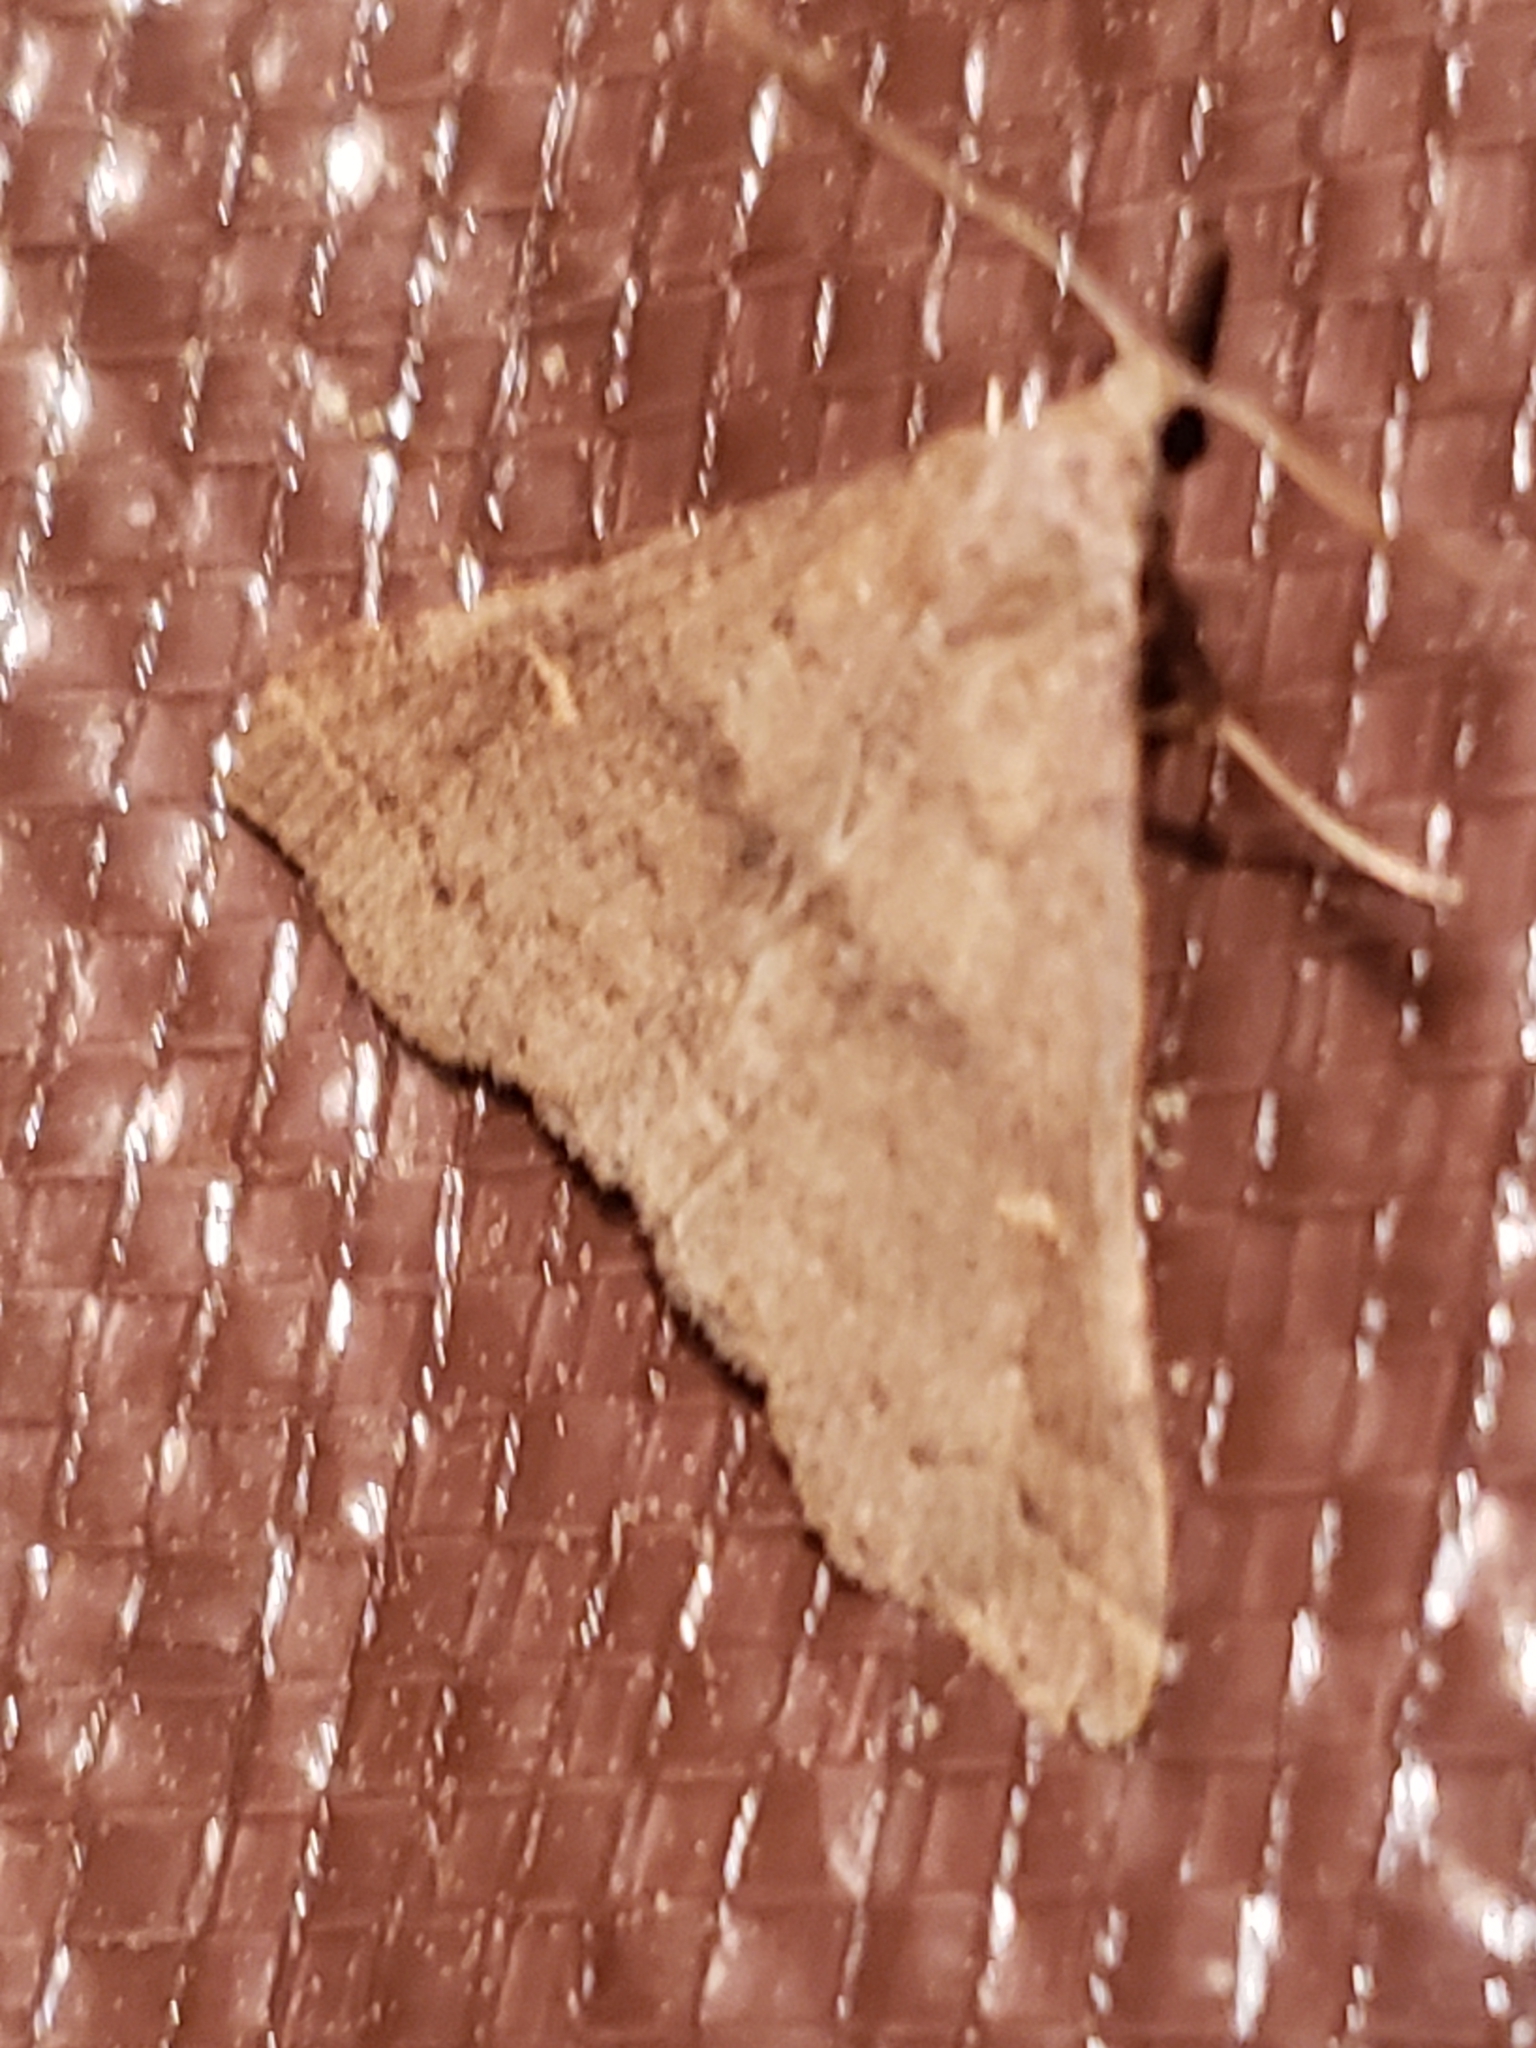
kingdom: Animalia
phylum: Arthropoda
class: Insecta
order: Lepidoptera
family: Erebidae
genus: Renia
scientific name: Renia adspergillus
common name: Speckled renia moth
